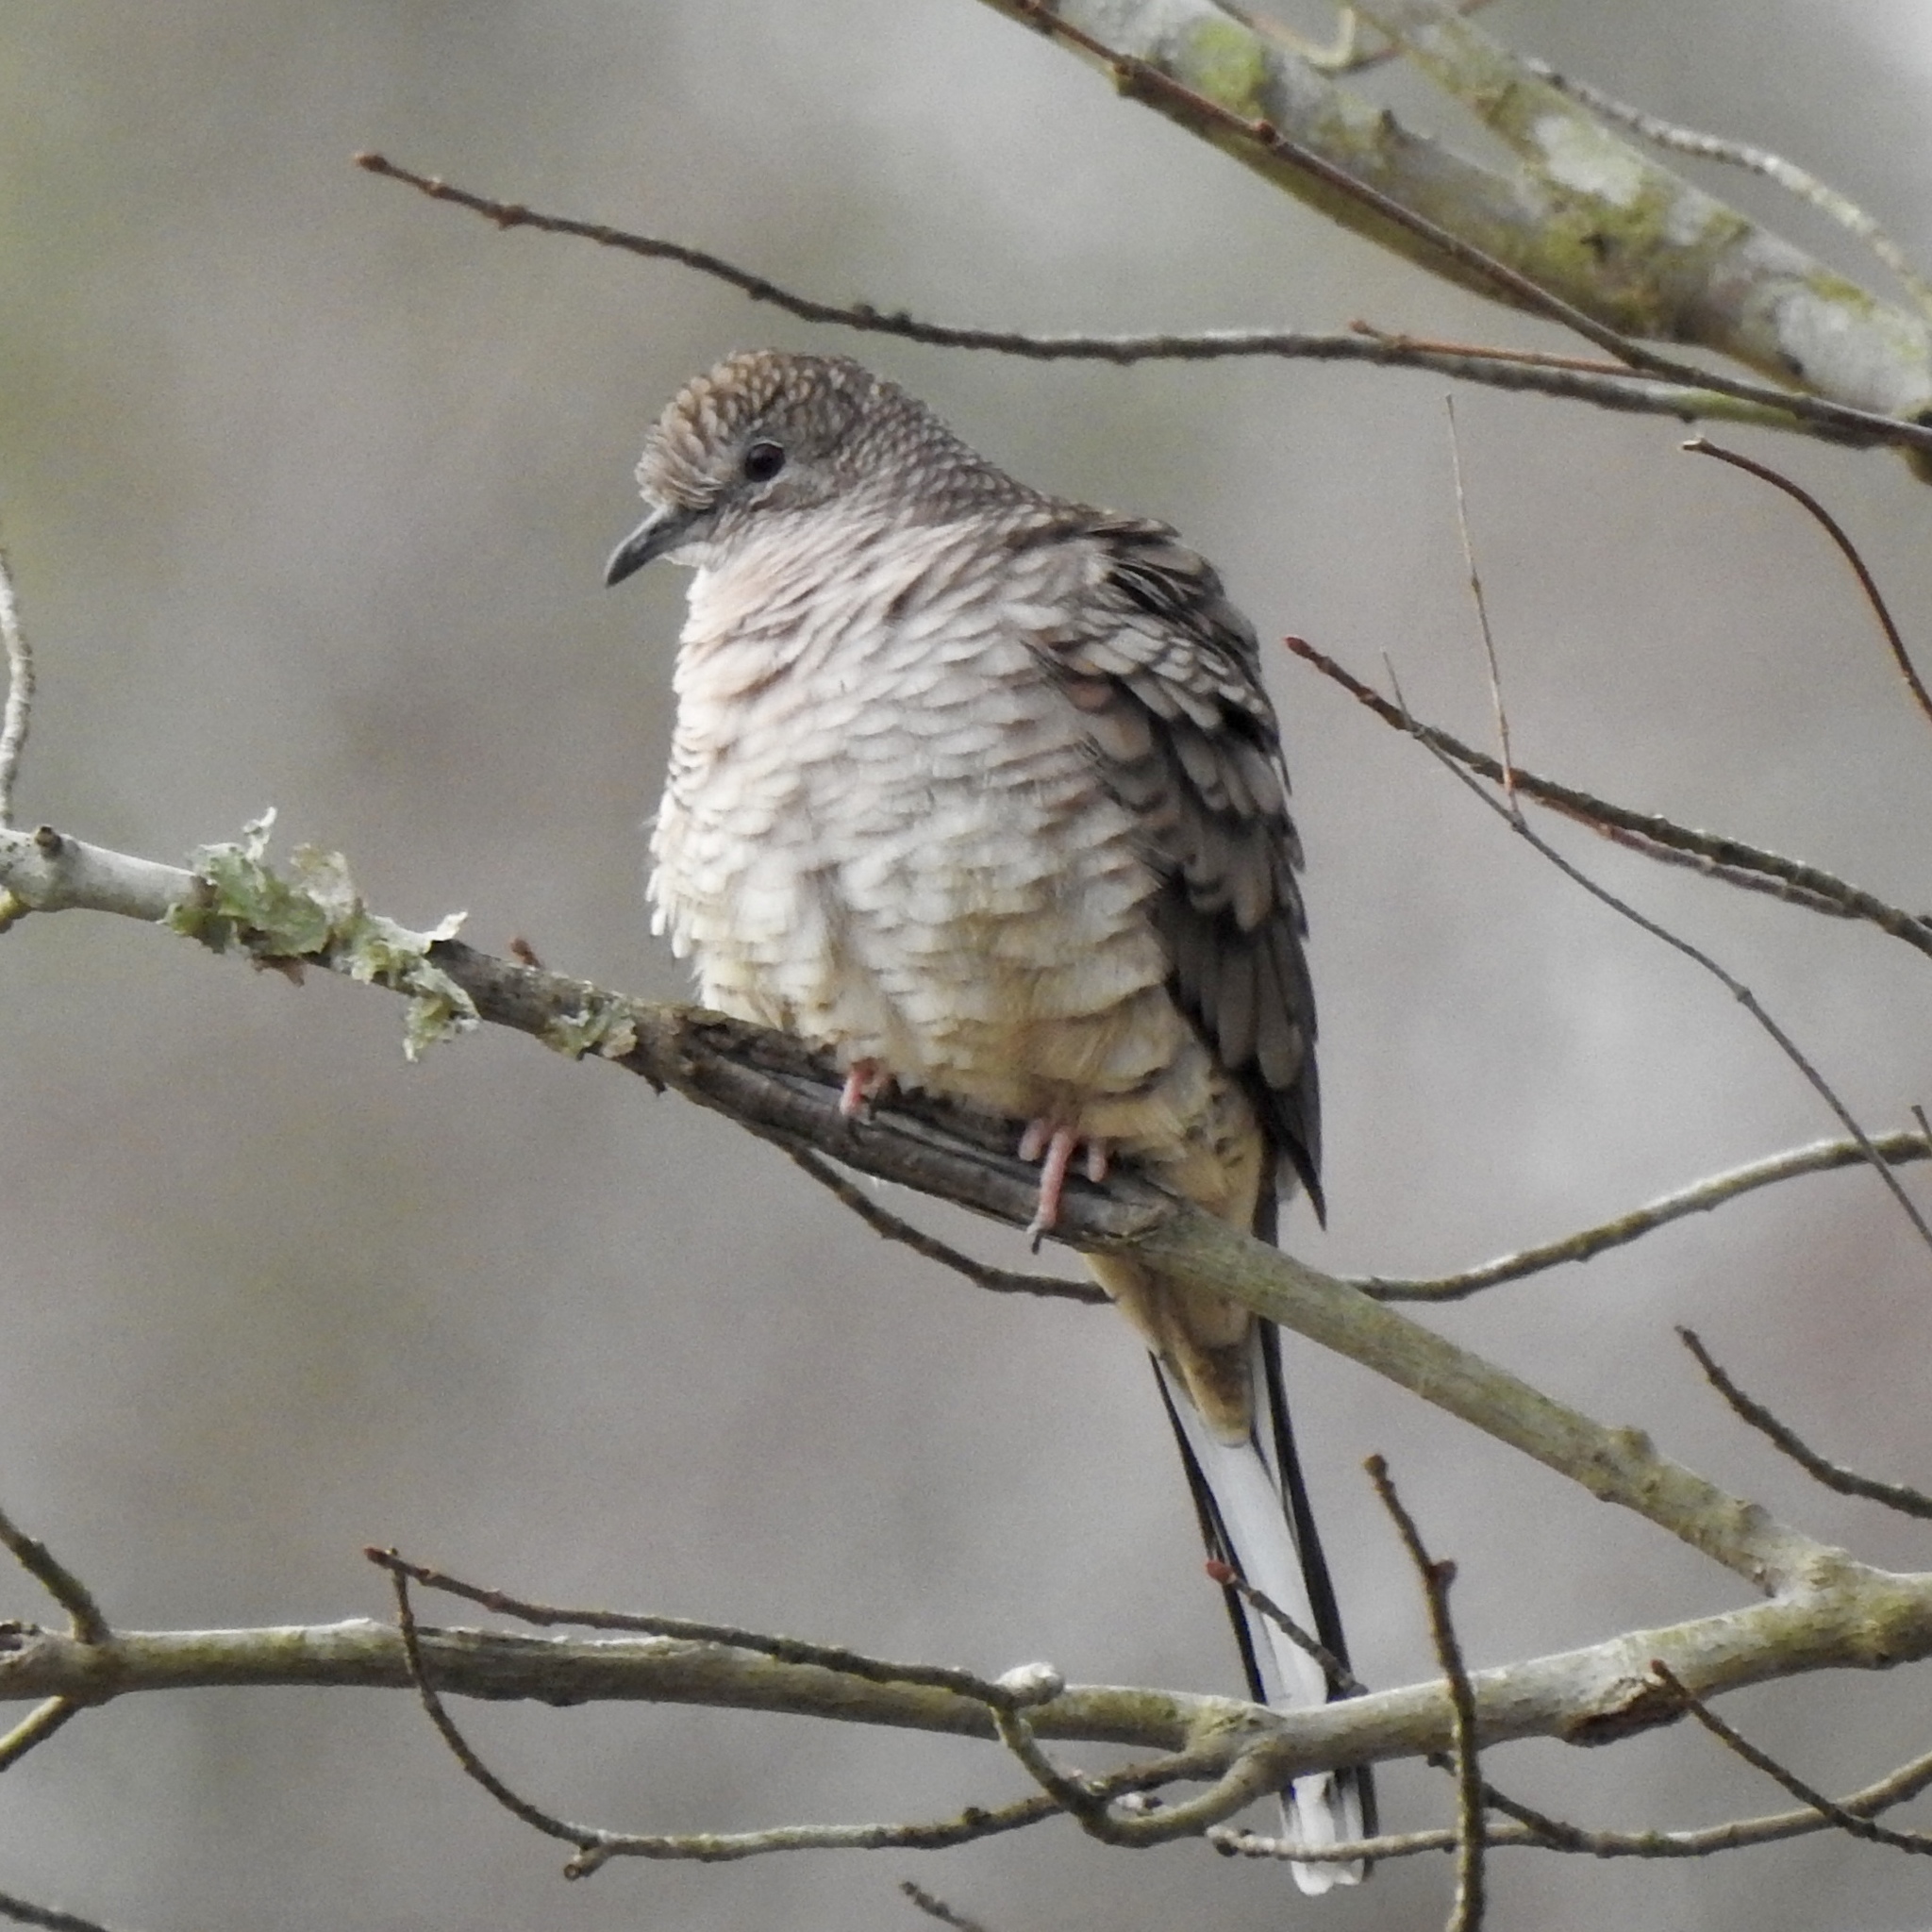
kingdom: Animalia
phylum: Chordata
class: Aves
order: Columbiformes
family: Columbidae
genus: Columbina
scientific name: Columbina inca
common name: Inca dove
